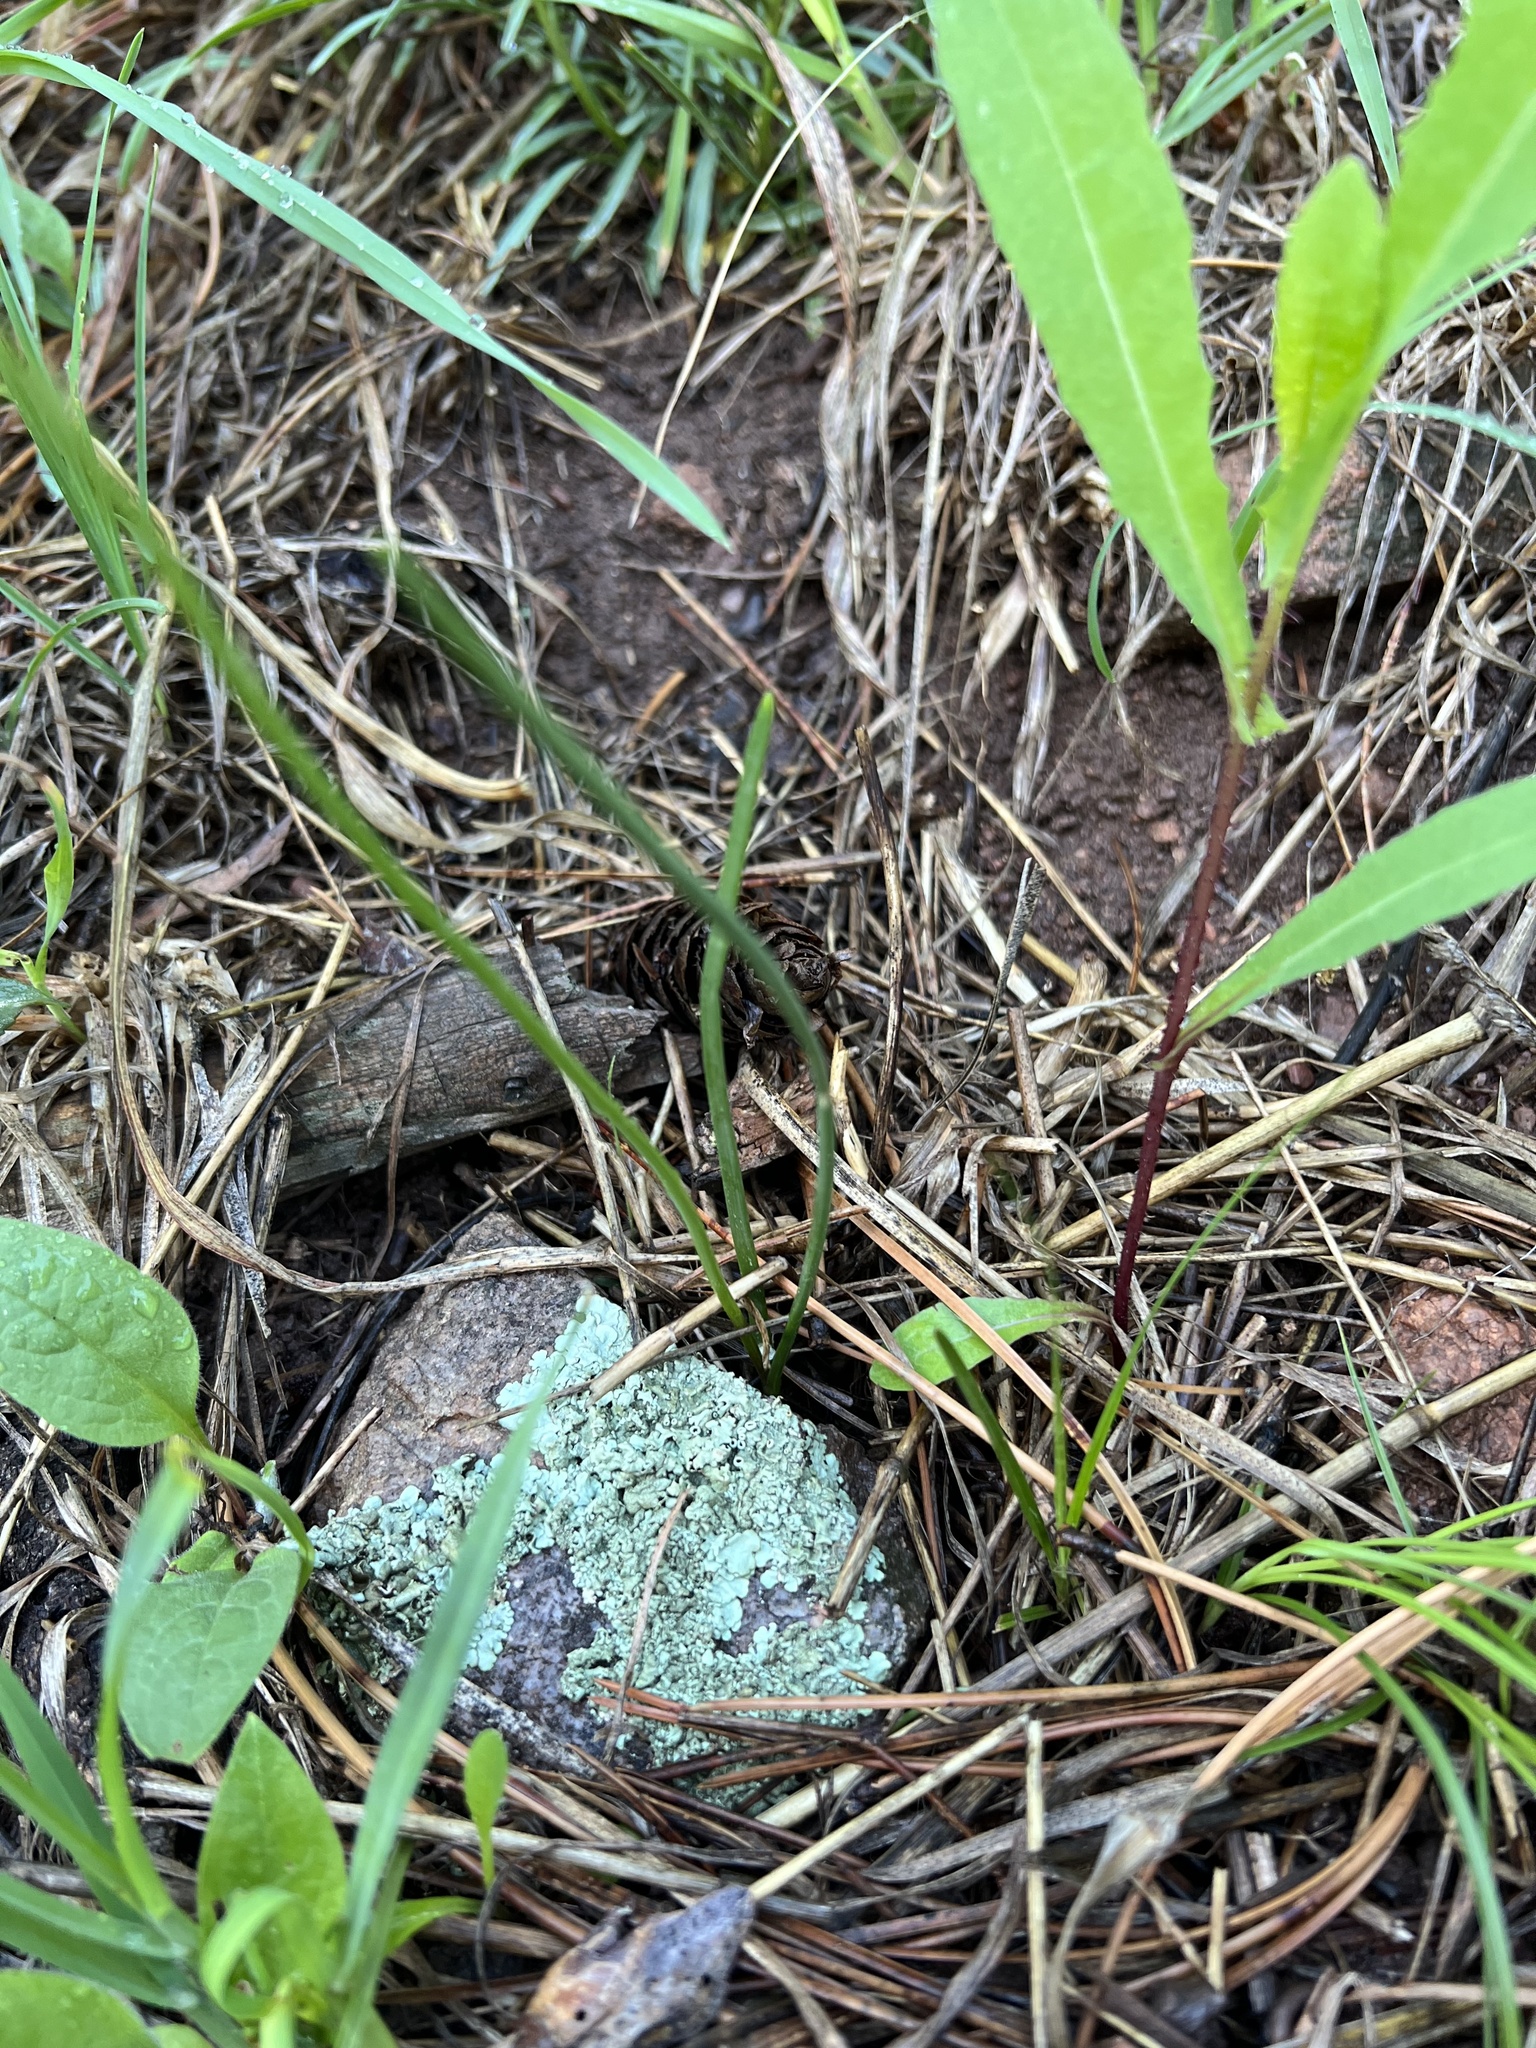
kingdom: Plantae
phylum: Tracheophyta
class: Liliopsida
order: Asparagales
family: Amaryllidaceae
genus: Allium
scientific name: Allium textile
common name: Prairie onion
